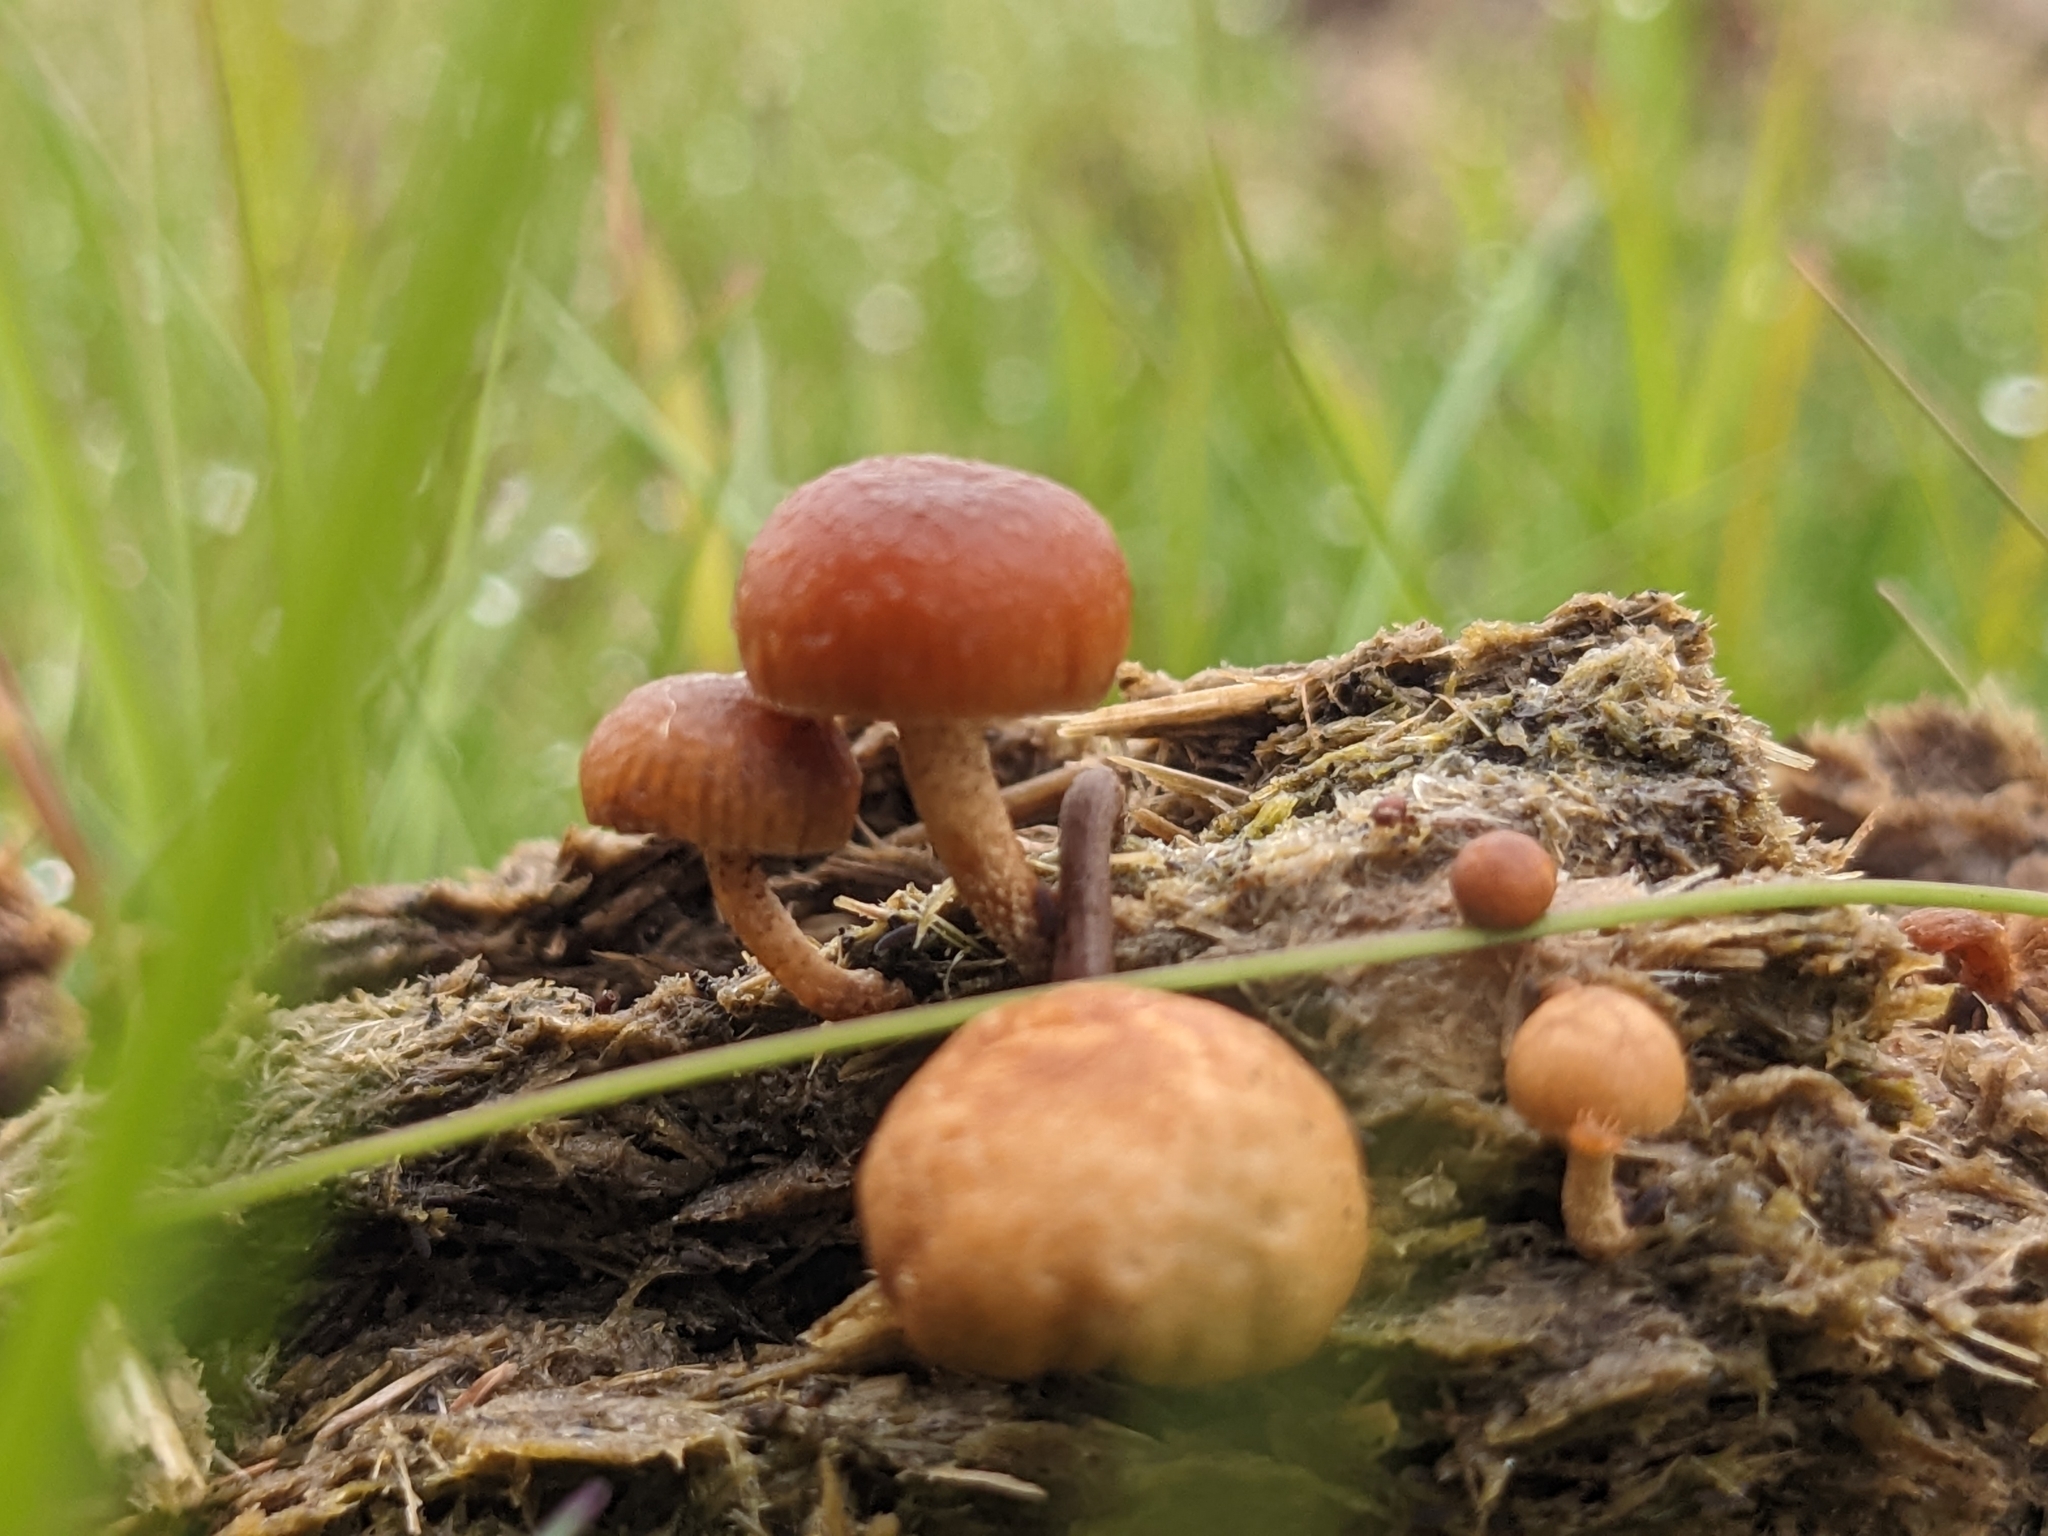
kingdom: Fungi
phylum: Basidiomycota
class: Agaricomycetes
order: Agaricales
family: Strophariaceae
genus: Deconica
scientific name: Deconica coprophila
